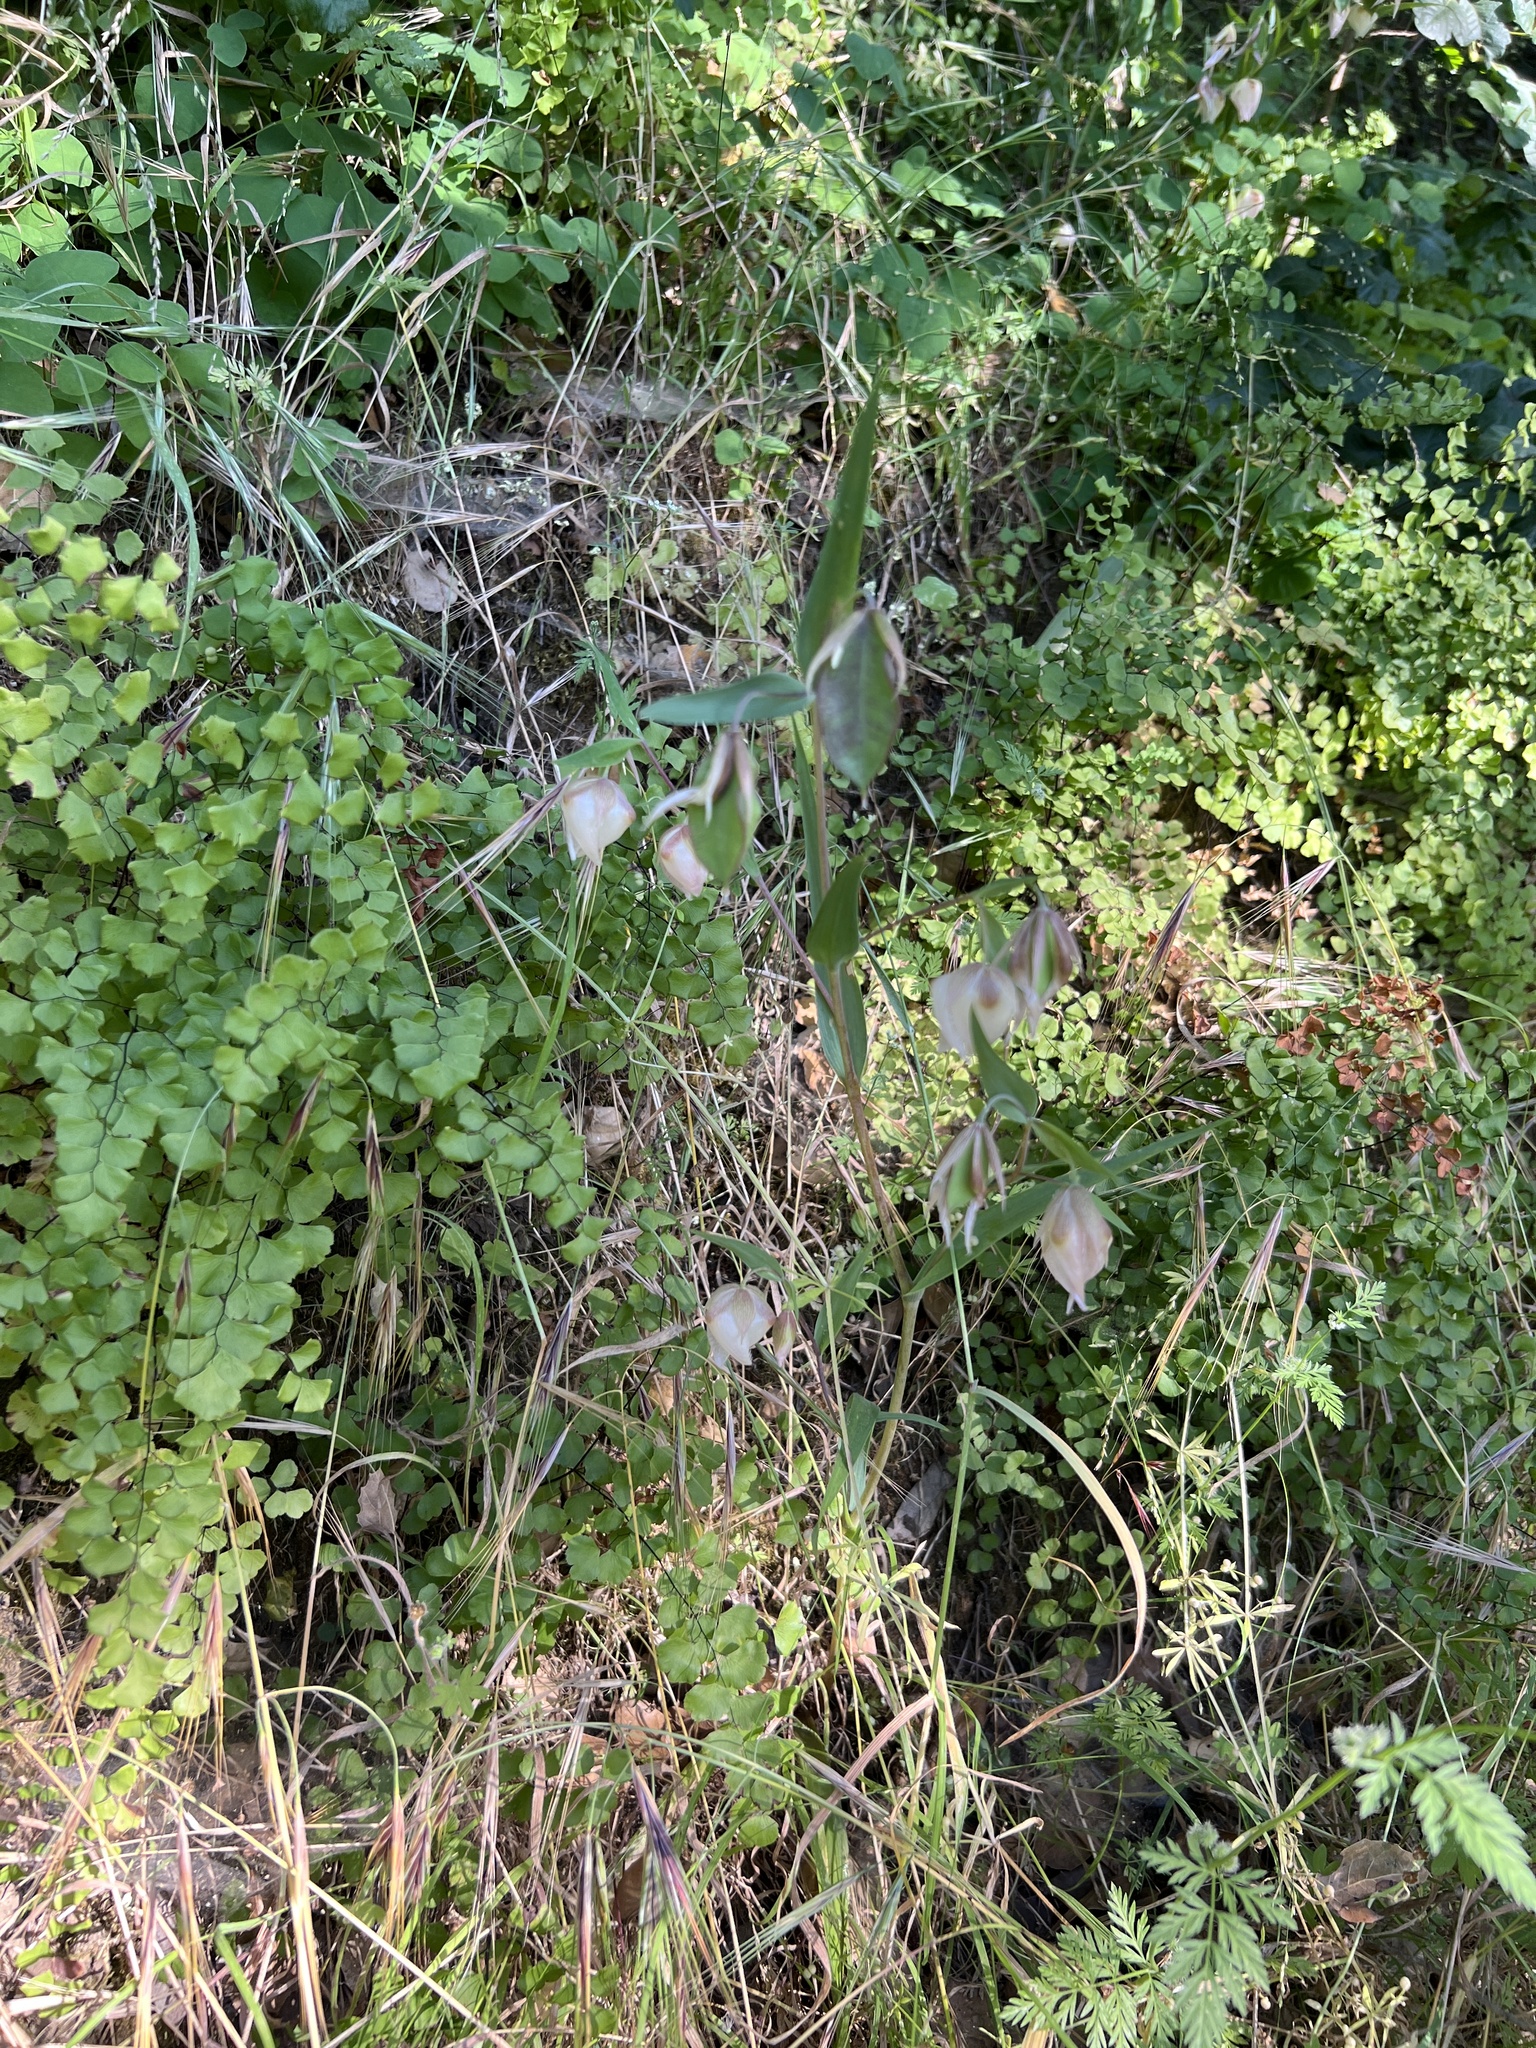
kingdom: Plantae
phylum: Tracheophyta
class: Liliopsida
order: Liliales
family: Liliaceae
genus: Calochortus
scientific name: Calochortus albus
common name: Fairy-lantern
